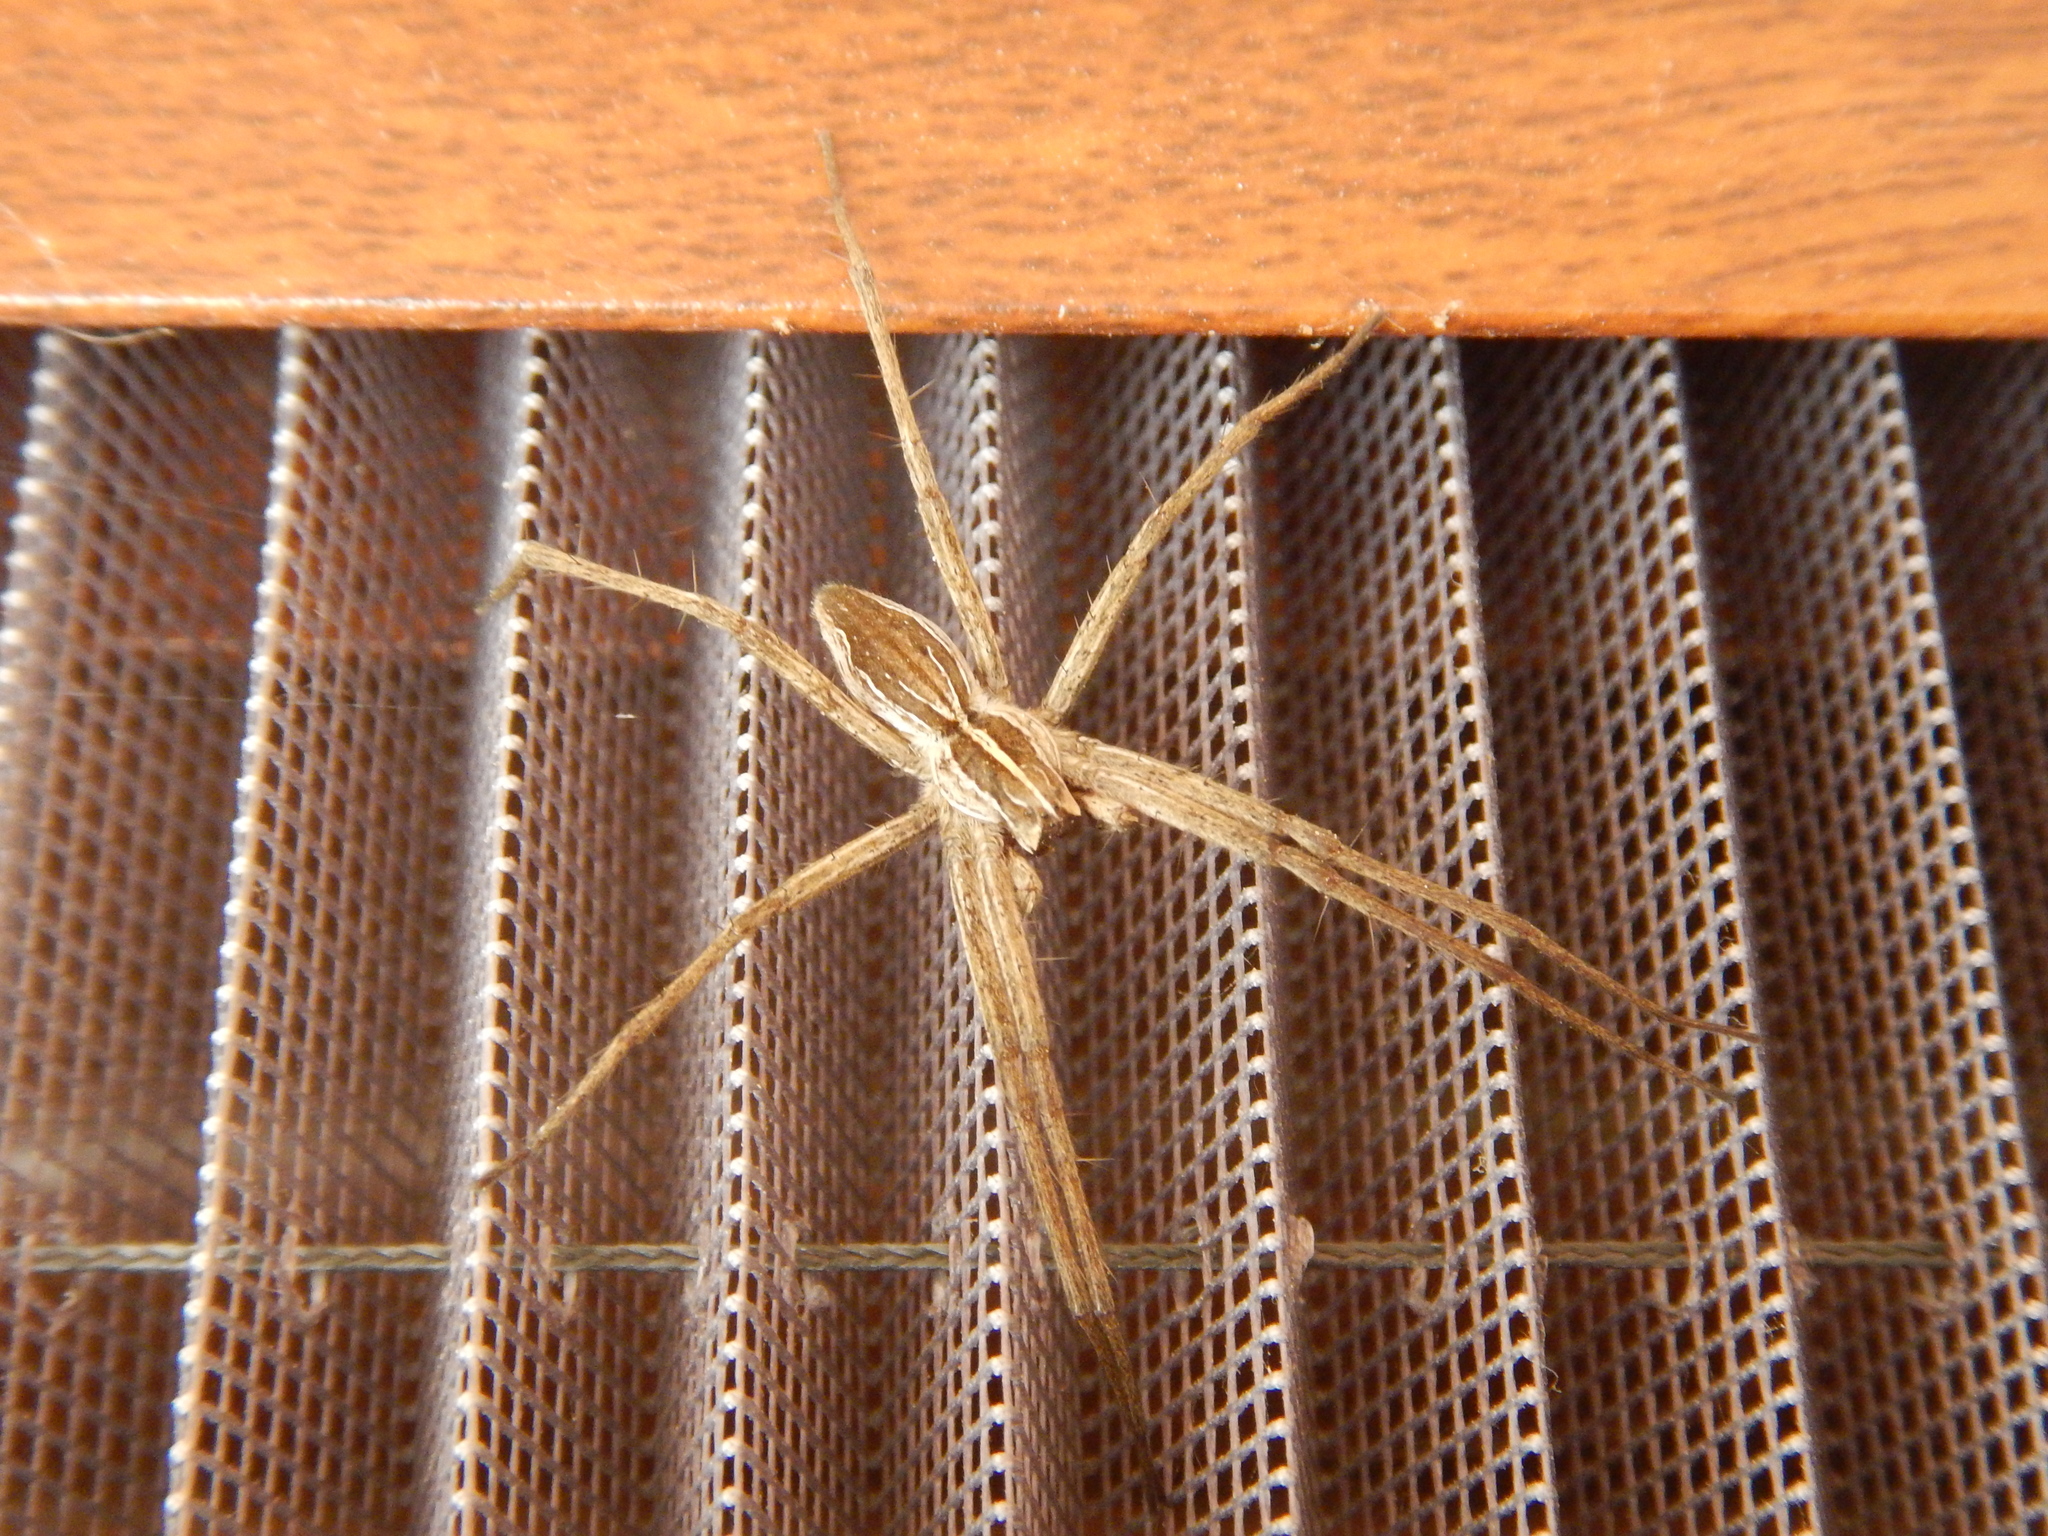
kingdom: Animalia
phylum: Arthropoda
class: Arachnida
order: Araneae
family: Pisauridae
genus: Pisaura
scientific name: Pisaura mirabilis
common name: Tent spider
